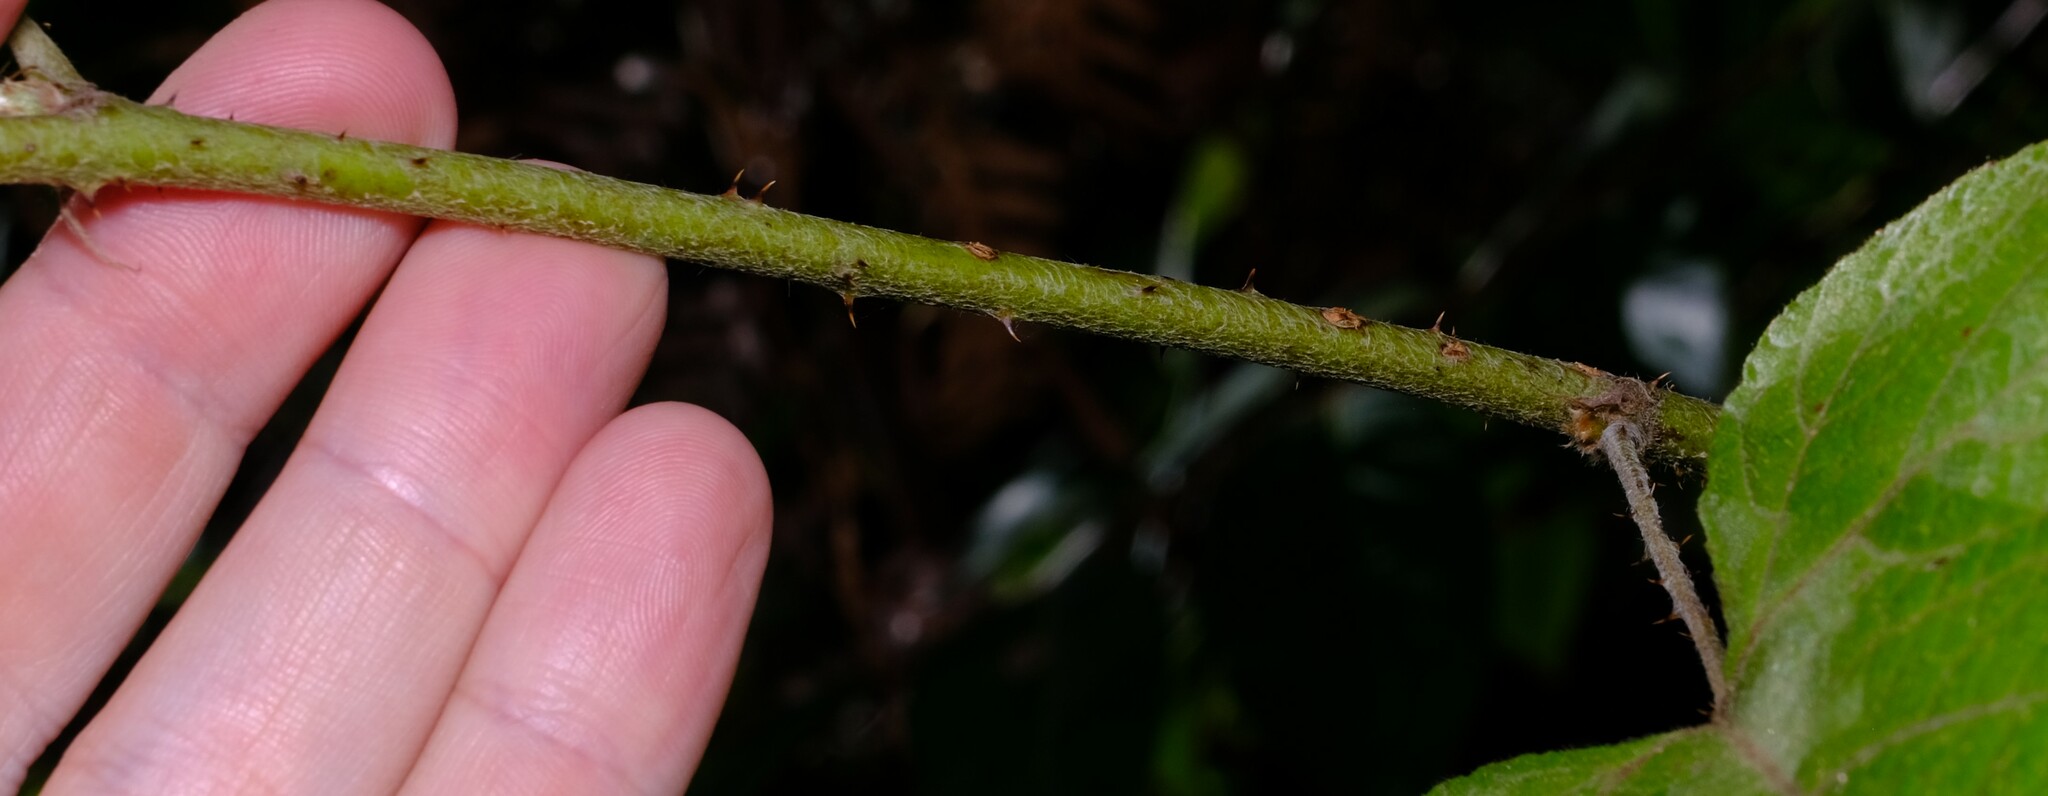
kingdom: Plantae
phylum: Tracheophyta
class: Magnoliopsida
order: Rosales
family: Rosaceae
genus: Rubus
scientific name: Rubus moluccanus
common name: Wild raspberry
